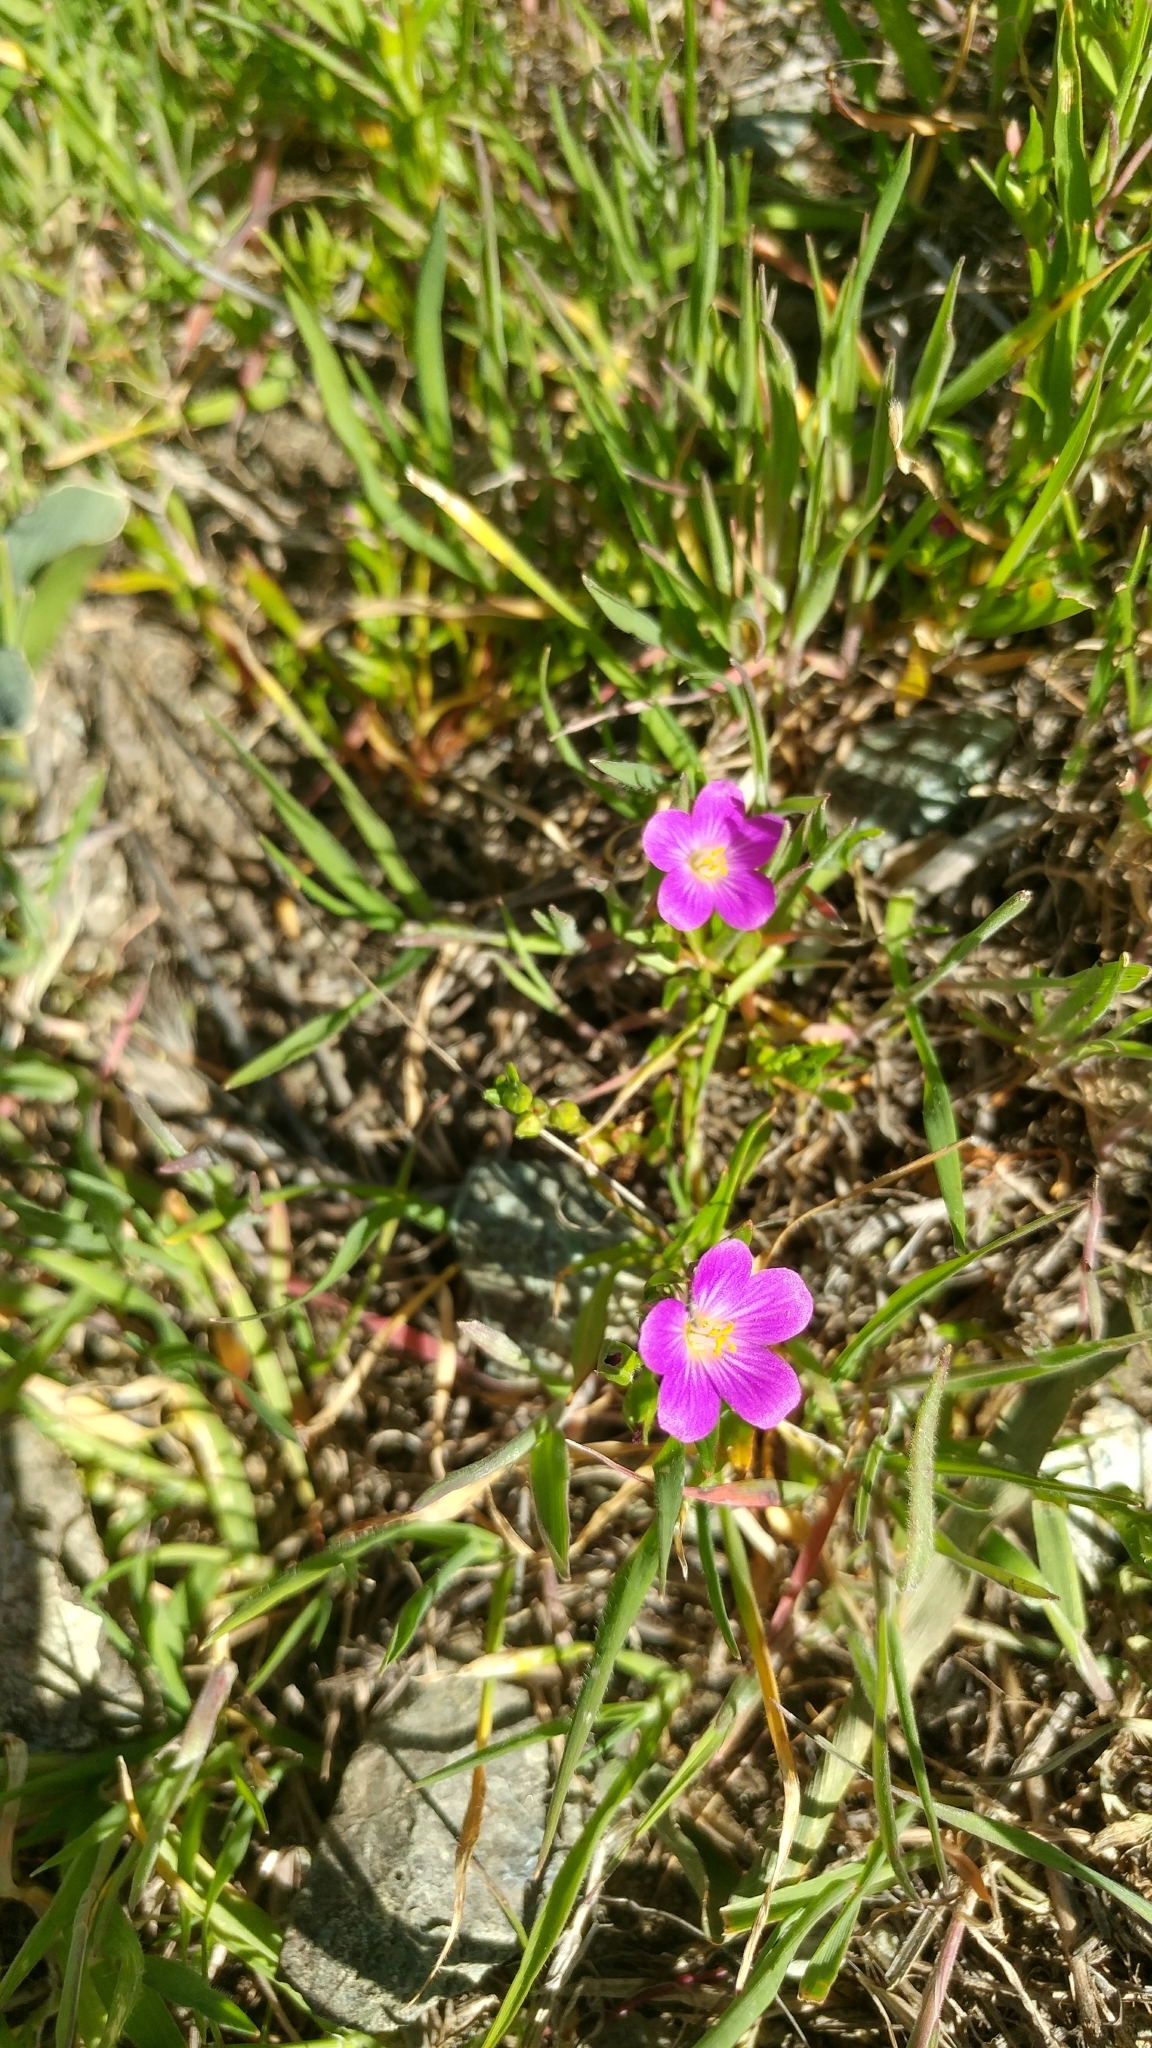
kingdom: Plantae
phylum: Tracheophyta
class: Magnoliopsida
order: Caryophyllales
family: Montiaceae
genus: Calandrinia
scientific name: Calandrinia menziesii
